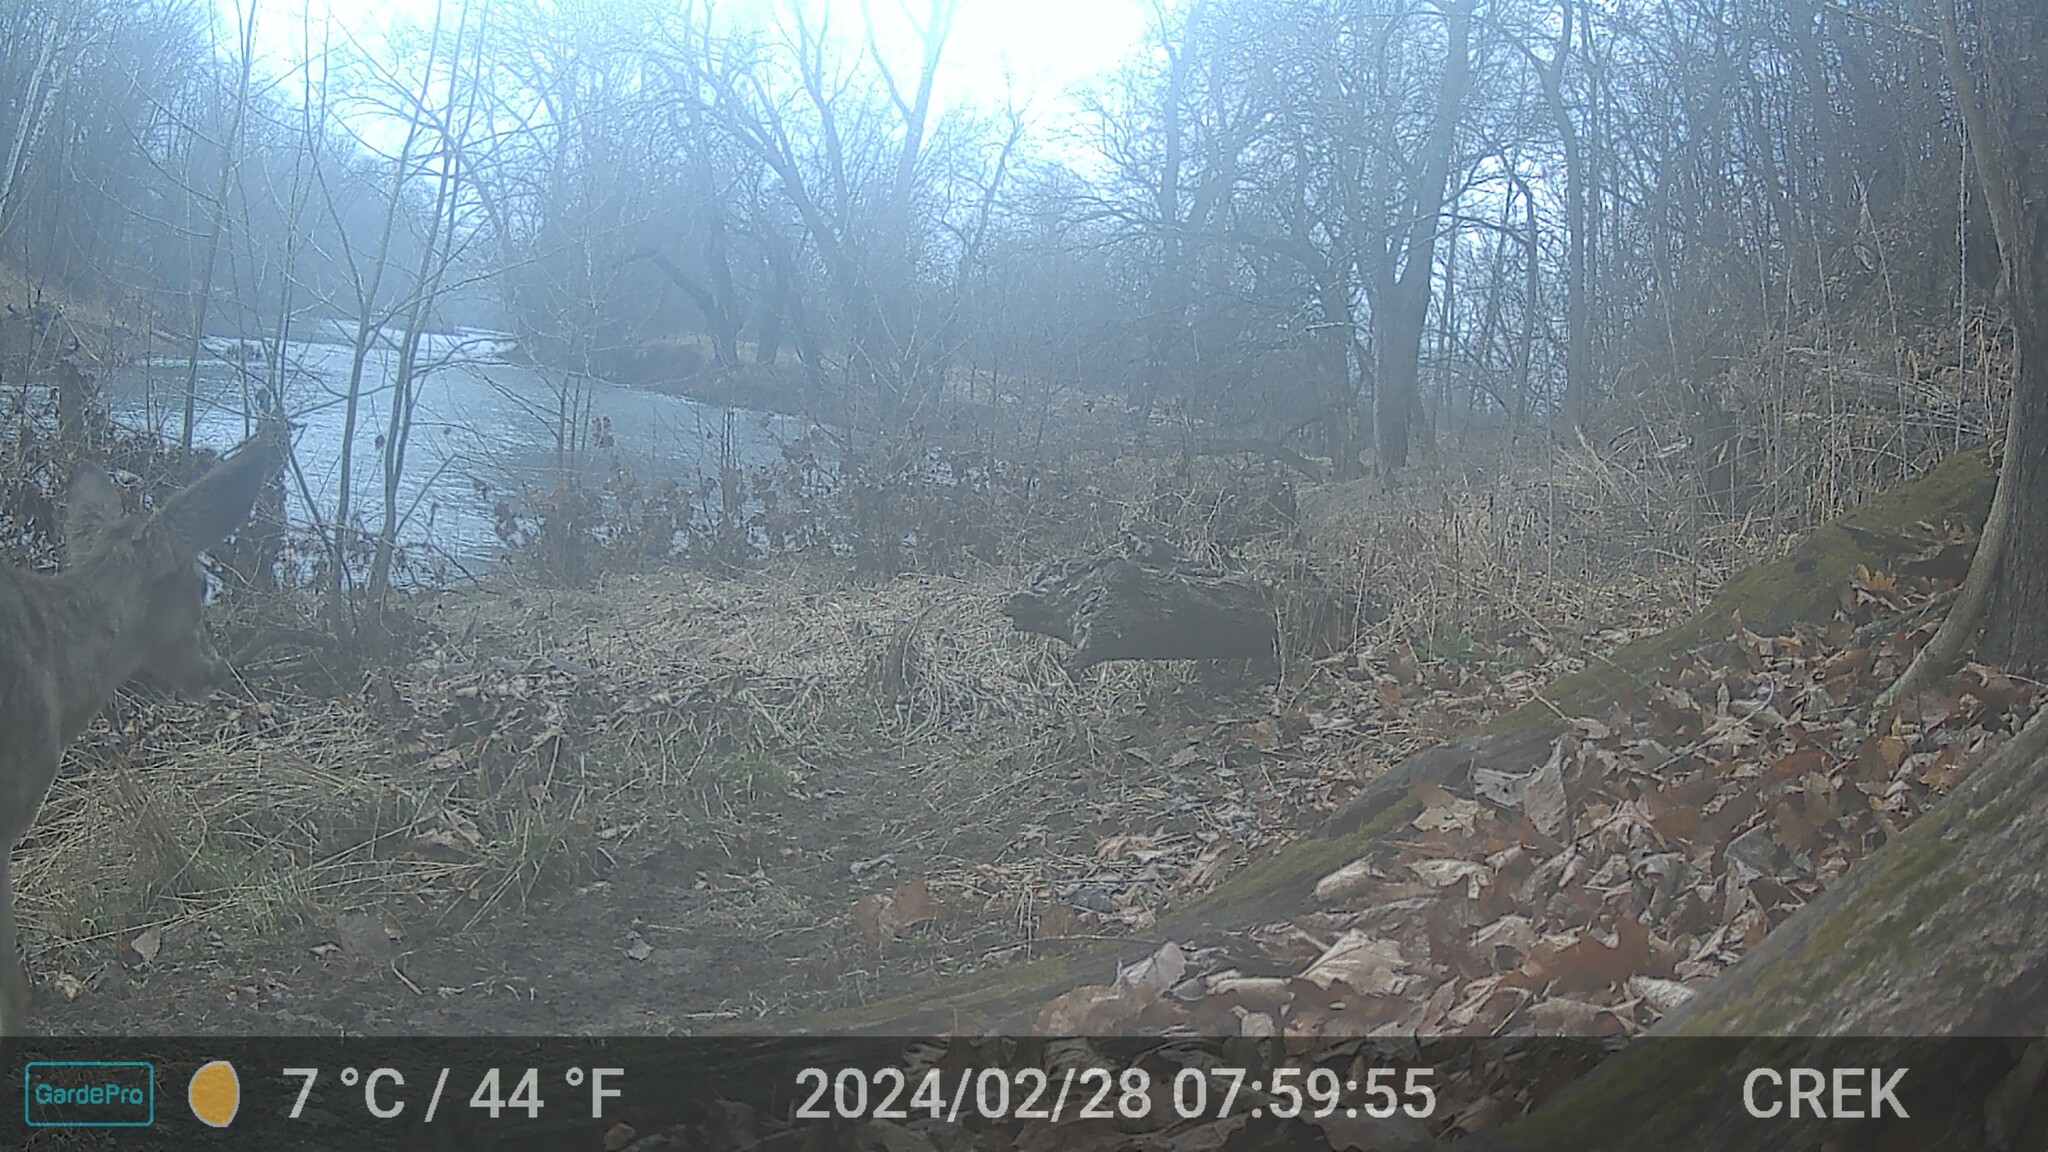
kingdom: Animalia
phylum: Chordata
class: Mammalia
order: Artiodactyla
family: Cervidae
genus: Odocoileus
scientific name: Odocoileus virginianus
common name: White-tailed deer
